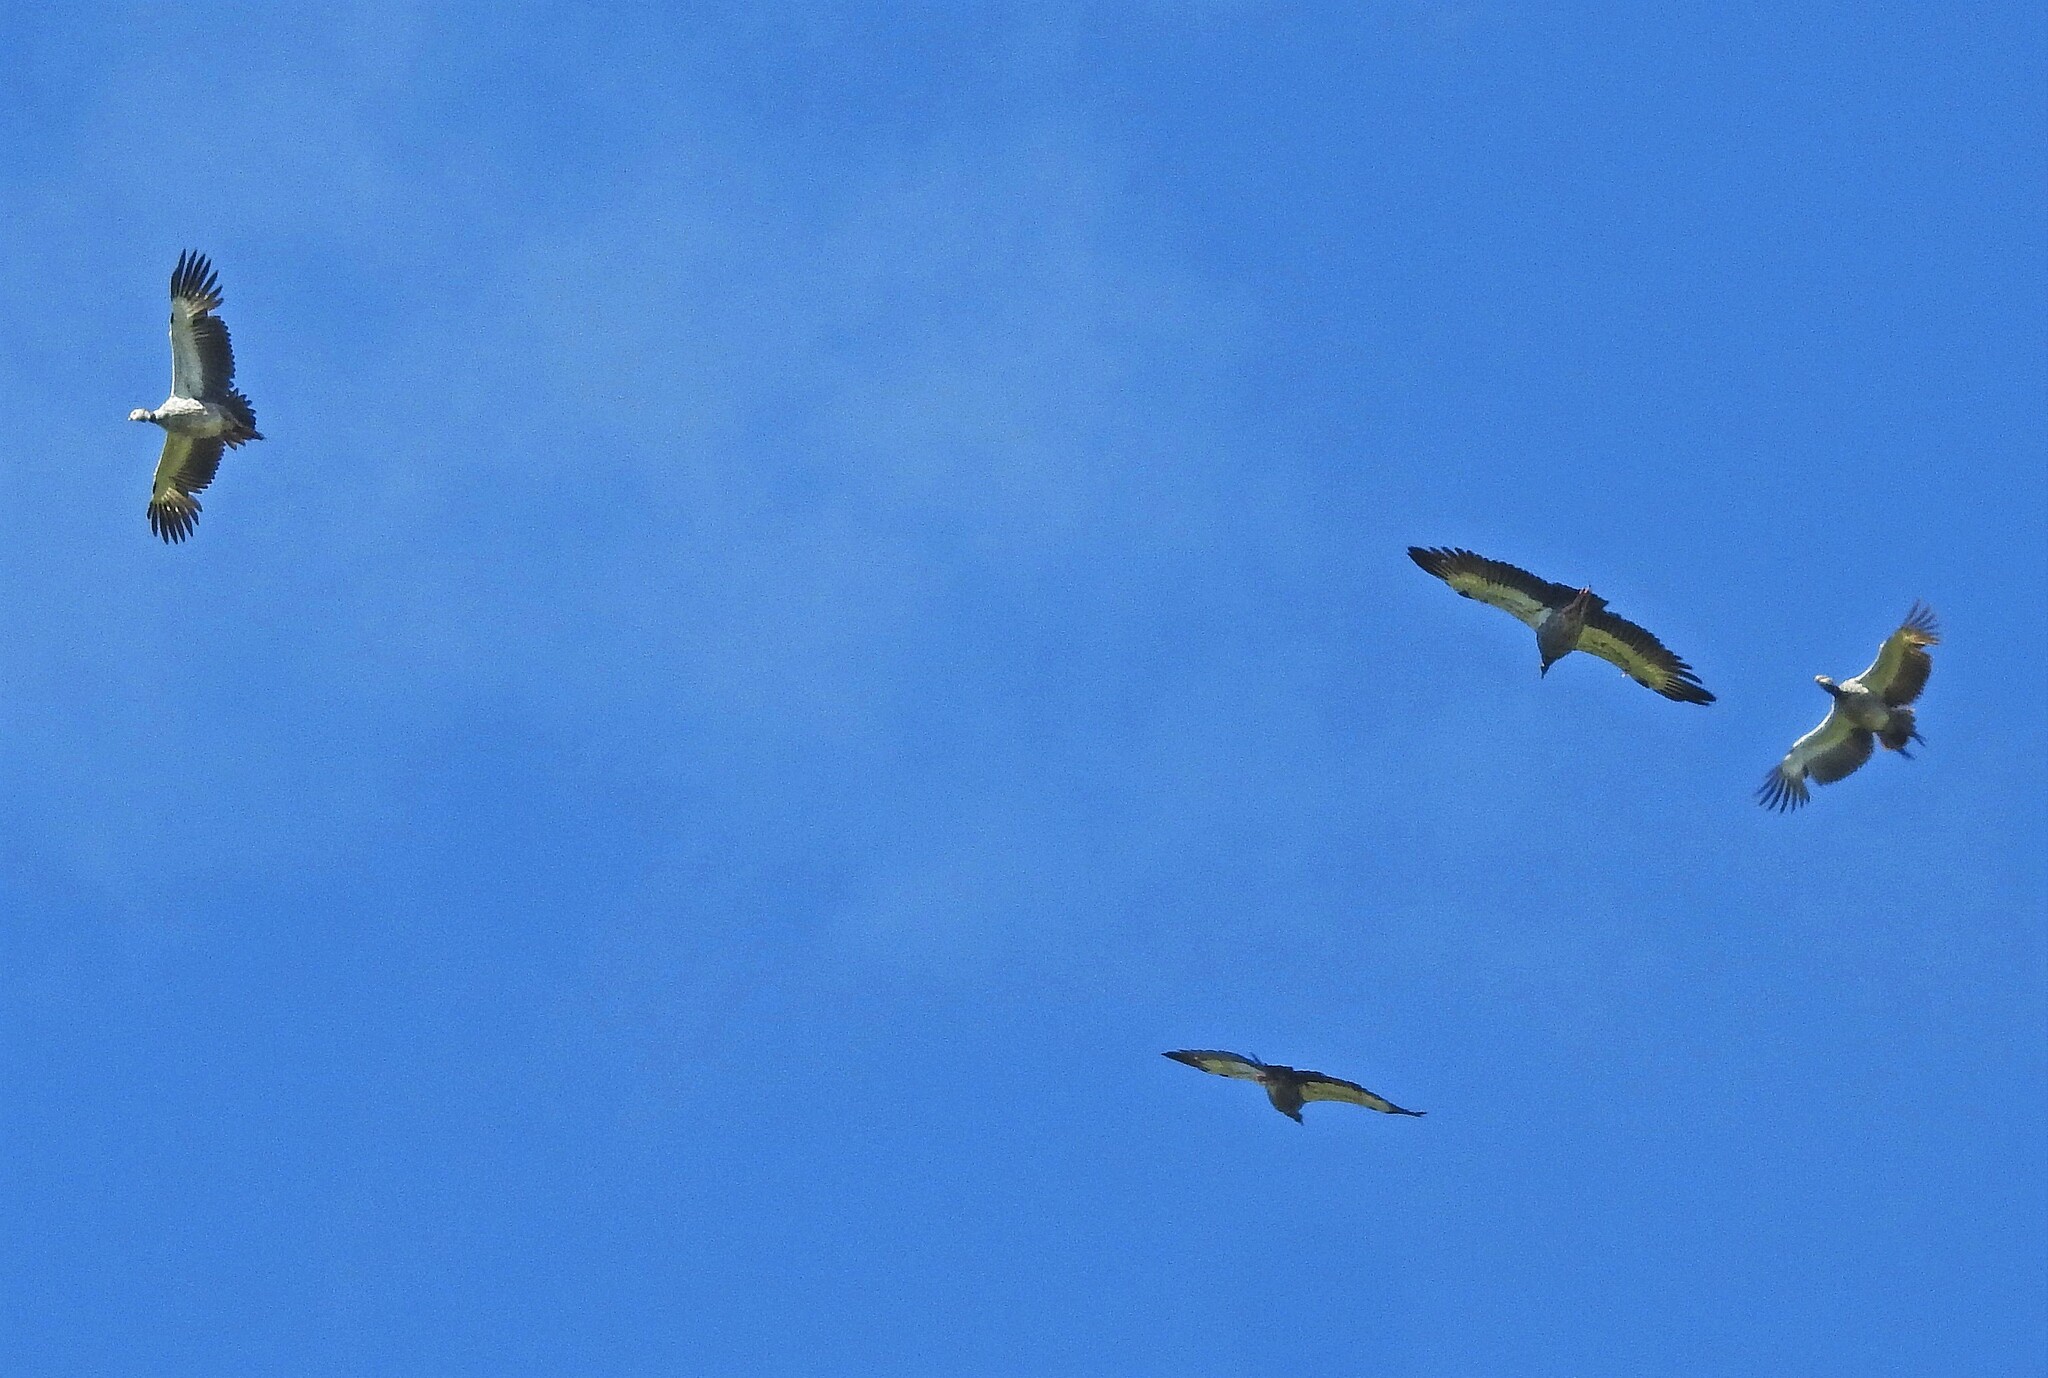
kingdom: Animalia
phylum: Chordata
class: Aves
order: Anseriformes
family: Anhimidae
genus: Chauna
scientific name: Chauna torquata
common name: Southern screamer
